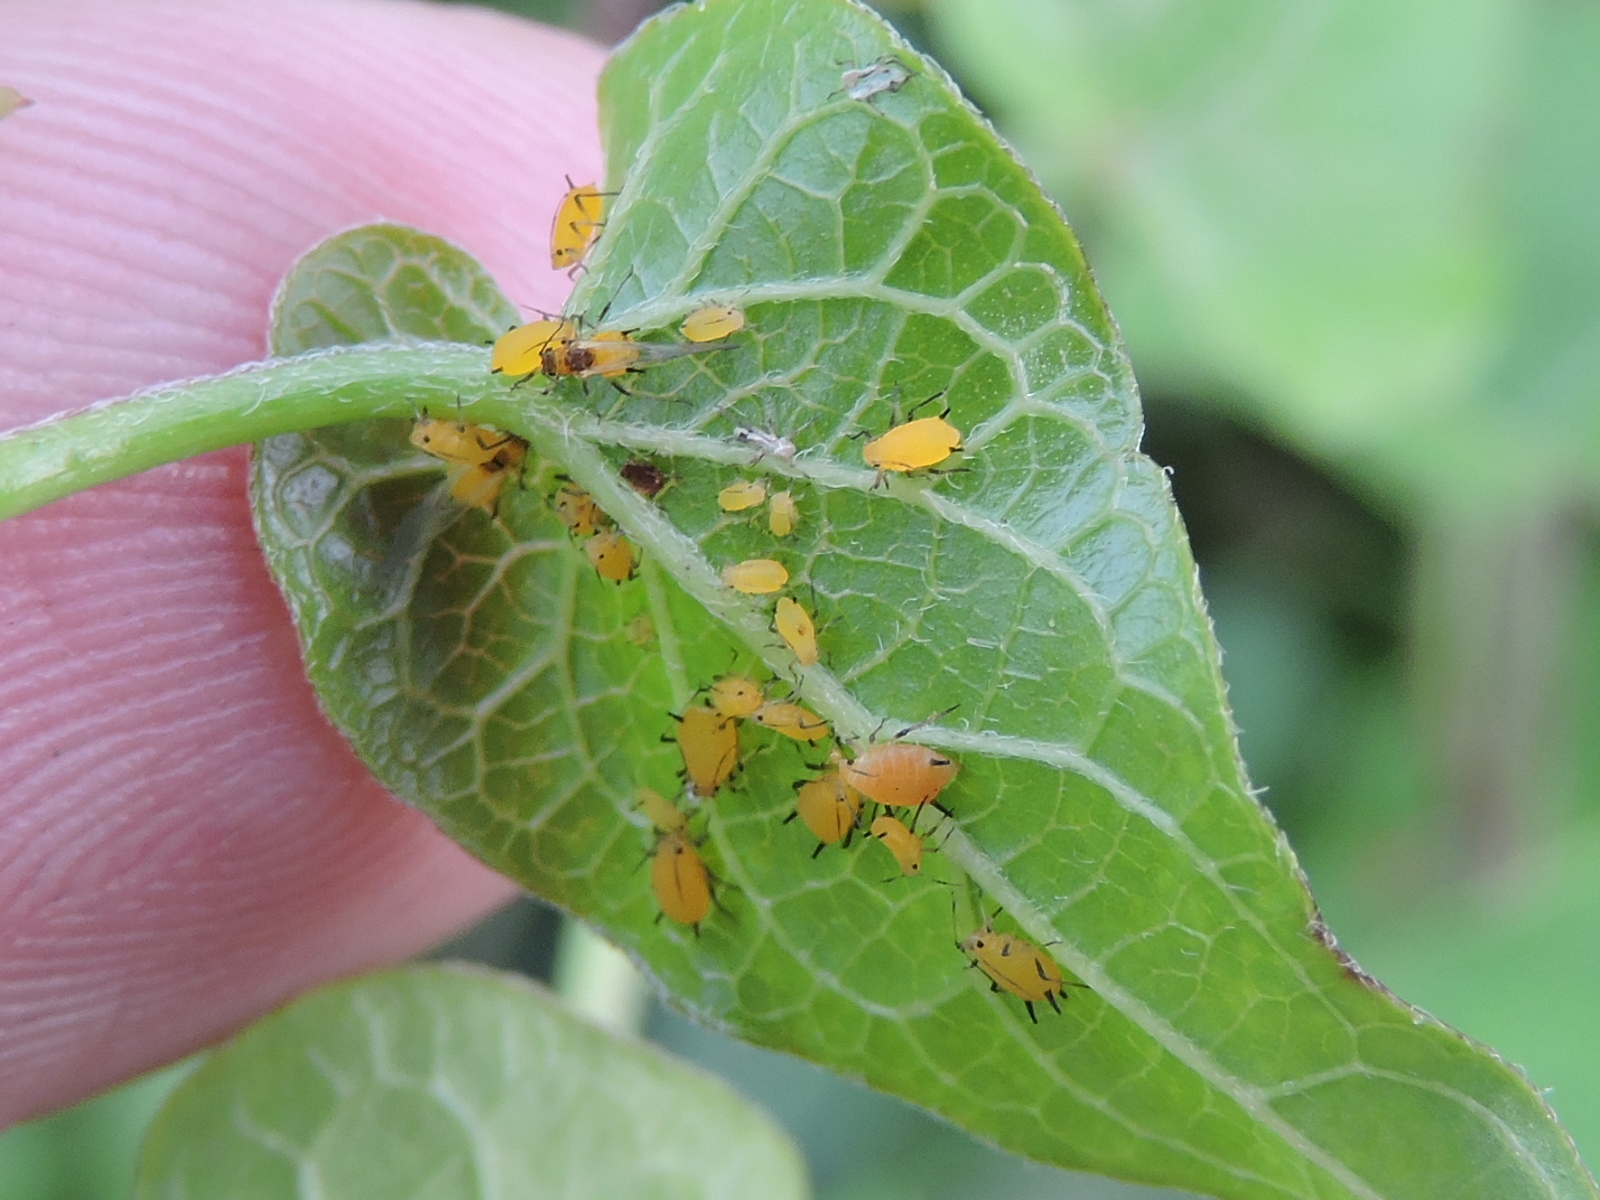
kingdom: Animalia
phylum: Arthropoda
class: Insecta
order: Hemiptera
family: Aphididae
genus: Aphis
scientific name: Aphis nerii
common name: Oleander aphid
